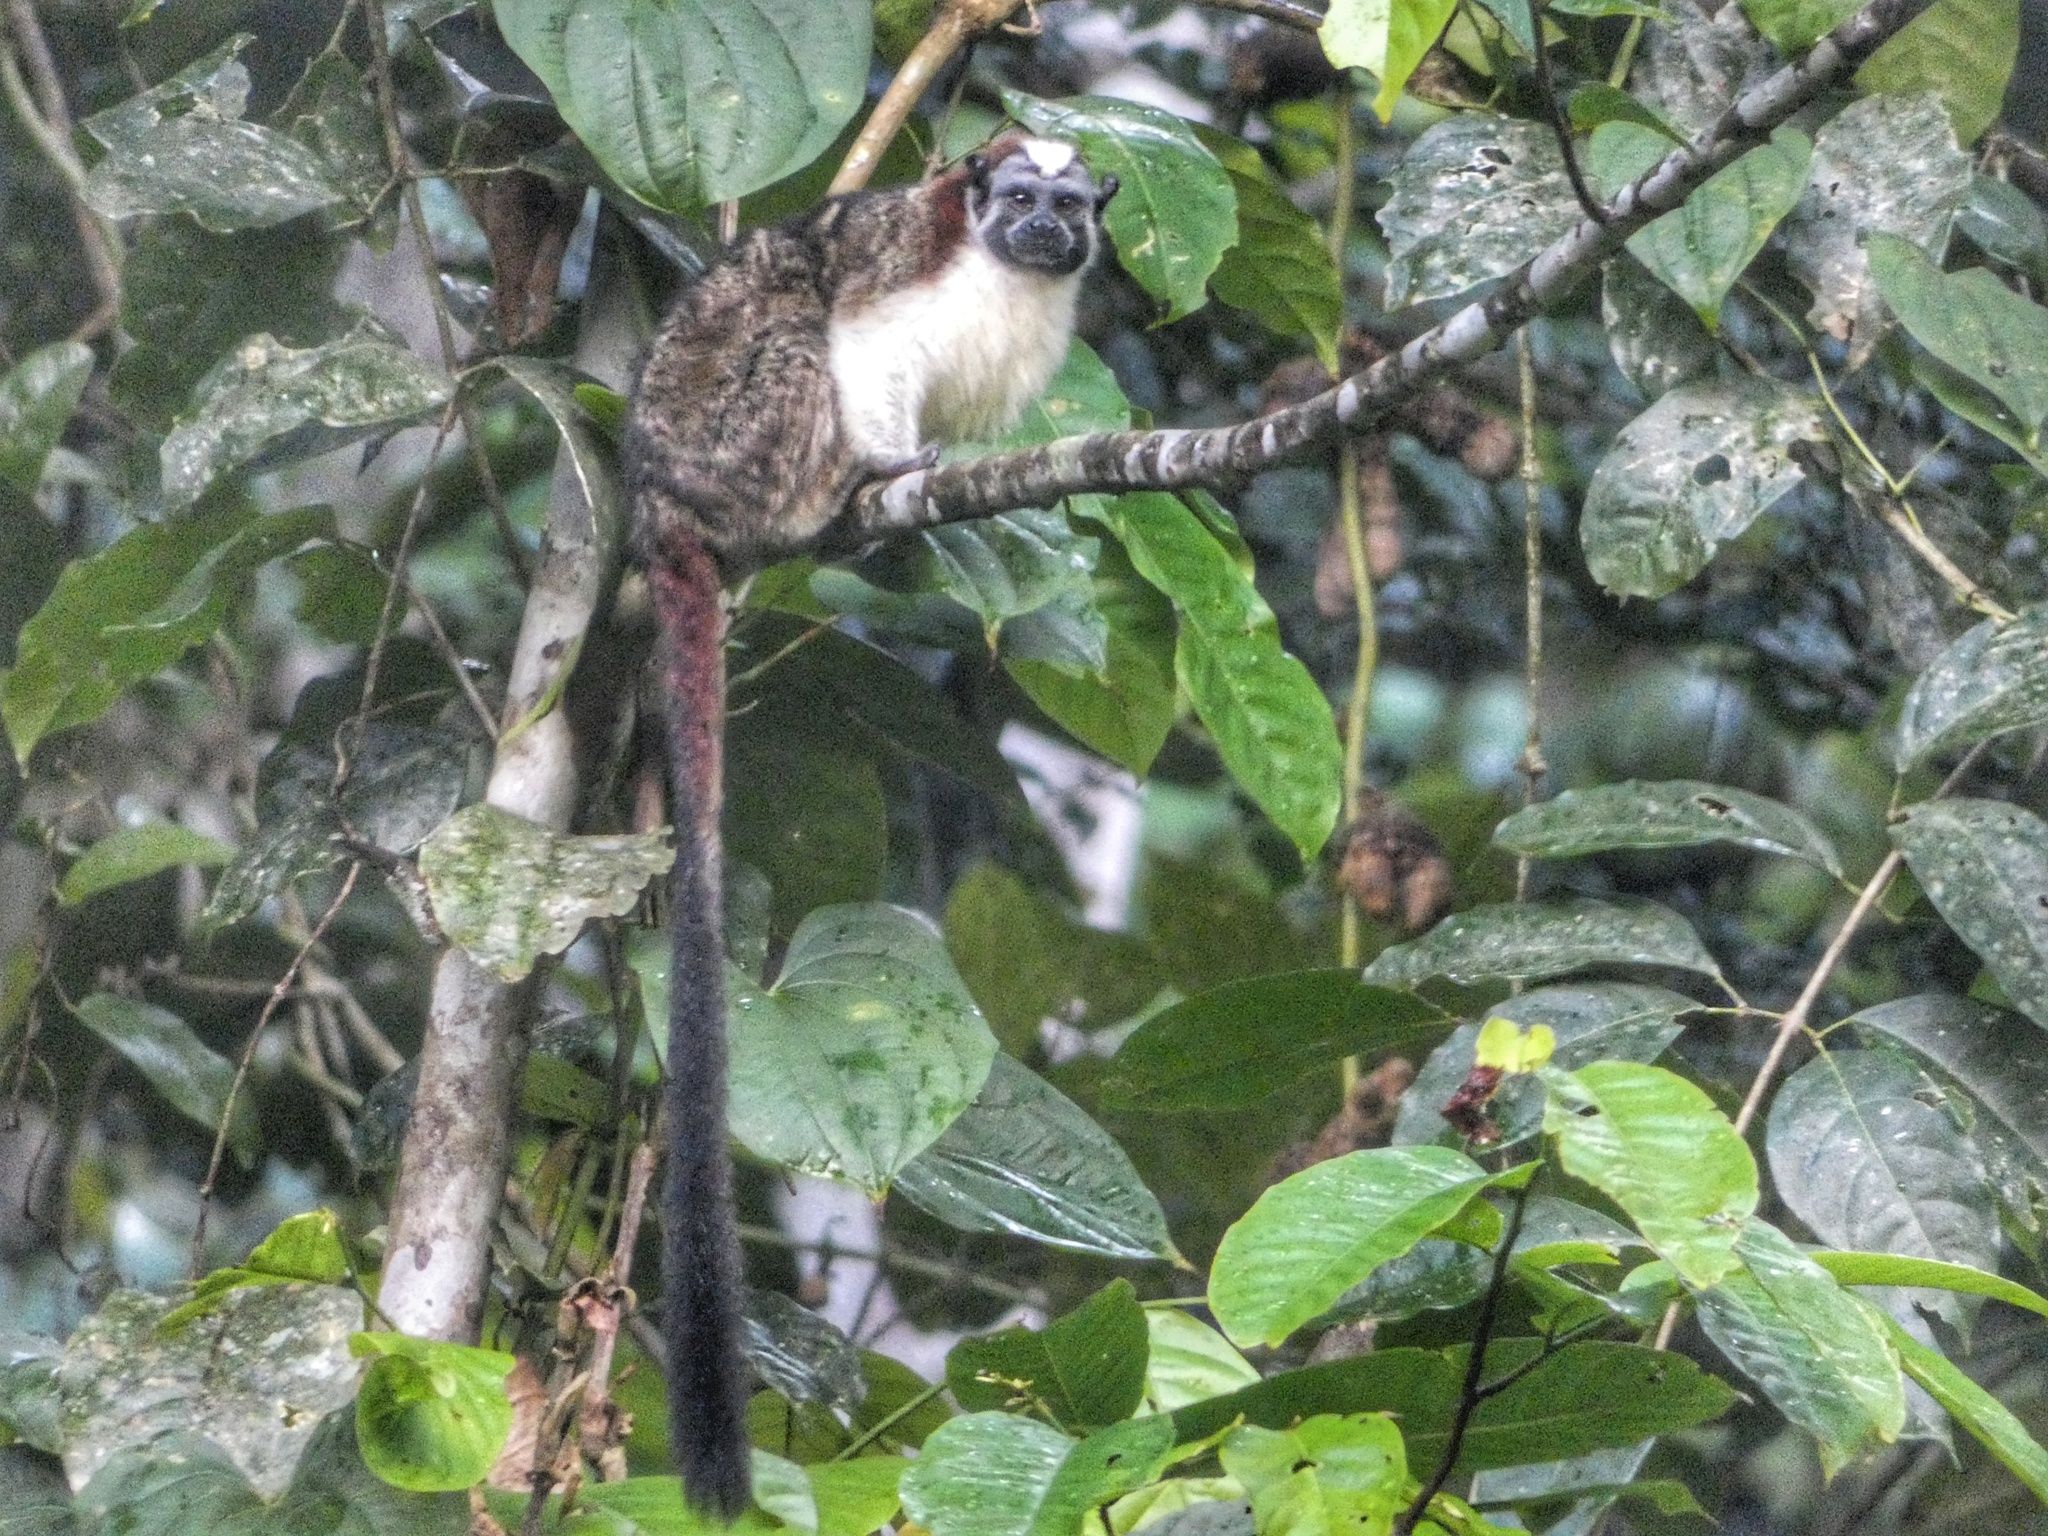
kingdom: Animalia
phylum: Chordata
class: Mammalia
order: Primates
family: Callitrichidae
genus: Saguinus
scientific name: Saguinus geoffroyi
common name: Geoffroy s tamarin
